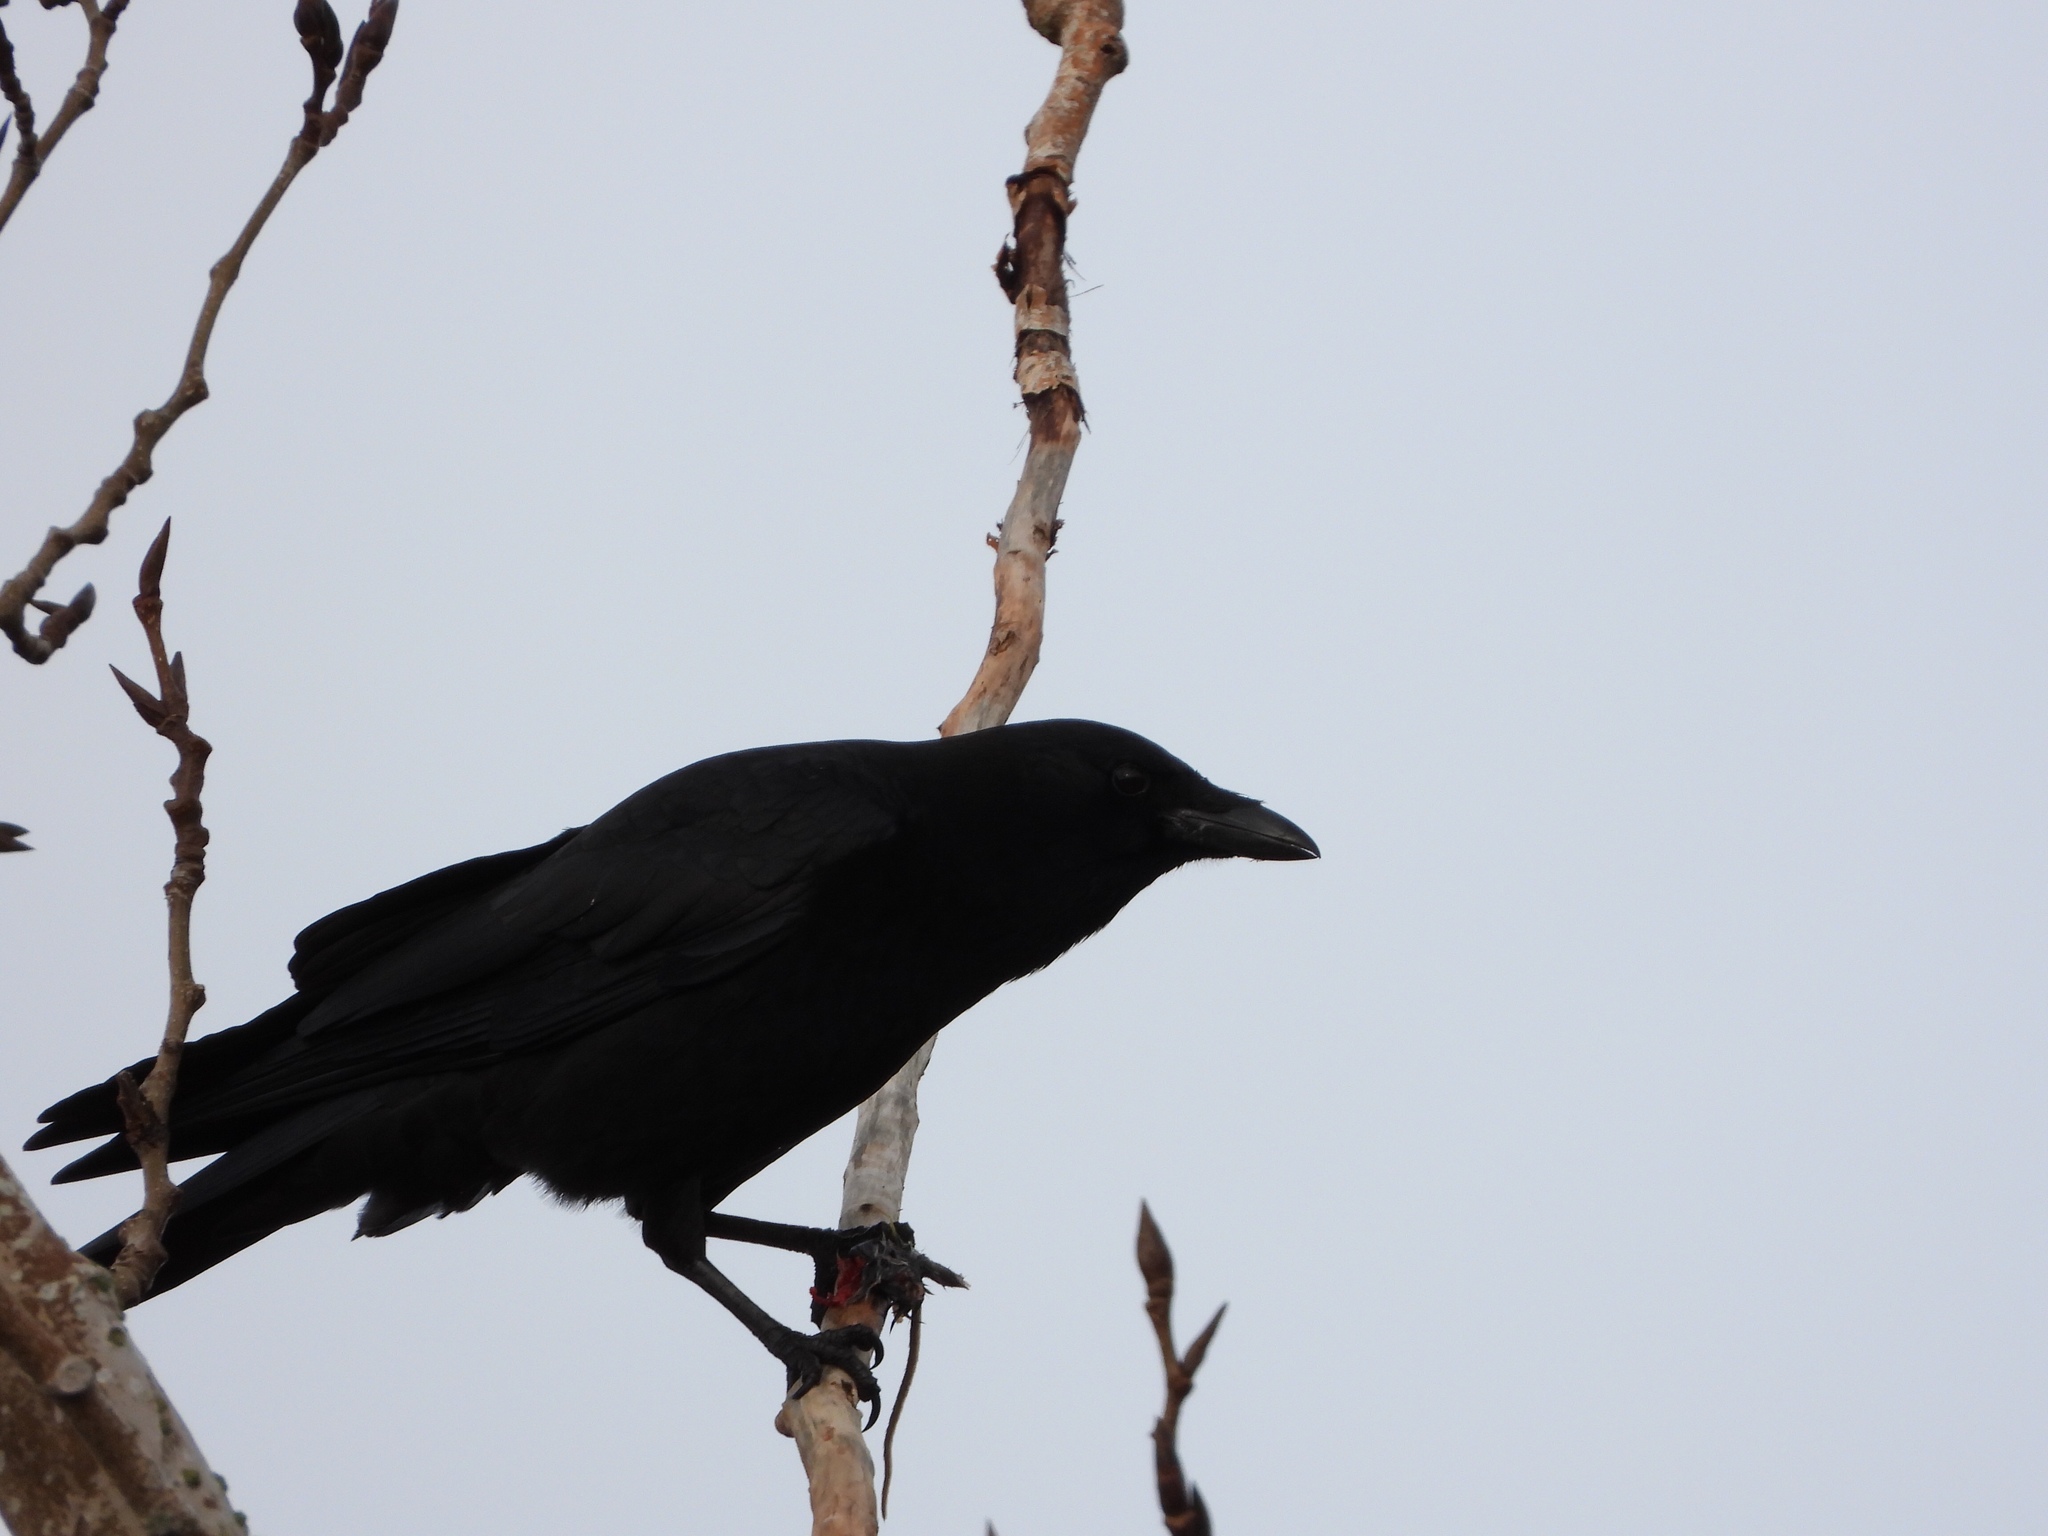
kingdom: Animalia
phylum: Chordata
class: Aves
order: Passeriformes
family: Corvidae
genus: Corvus
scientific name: Corvus brachyrhynchos
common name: American crow
